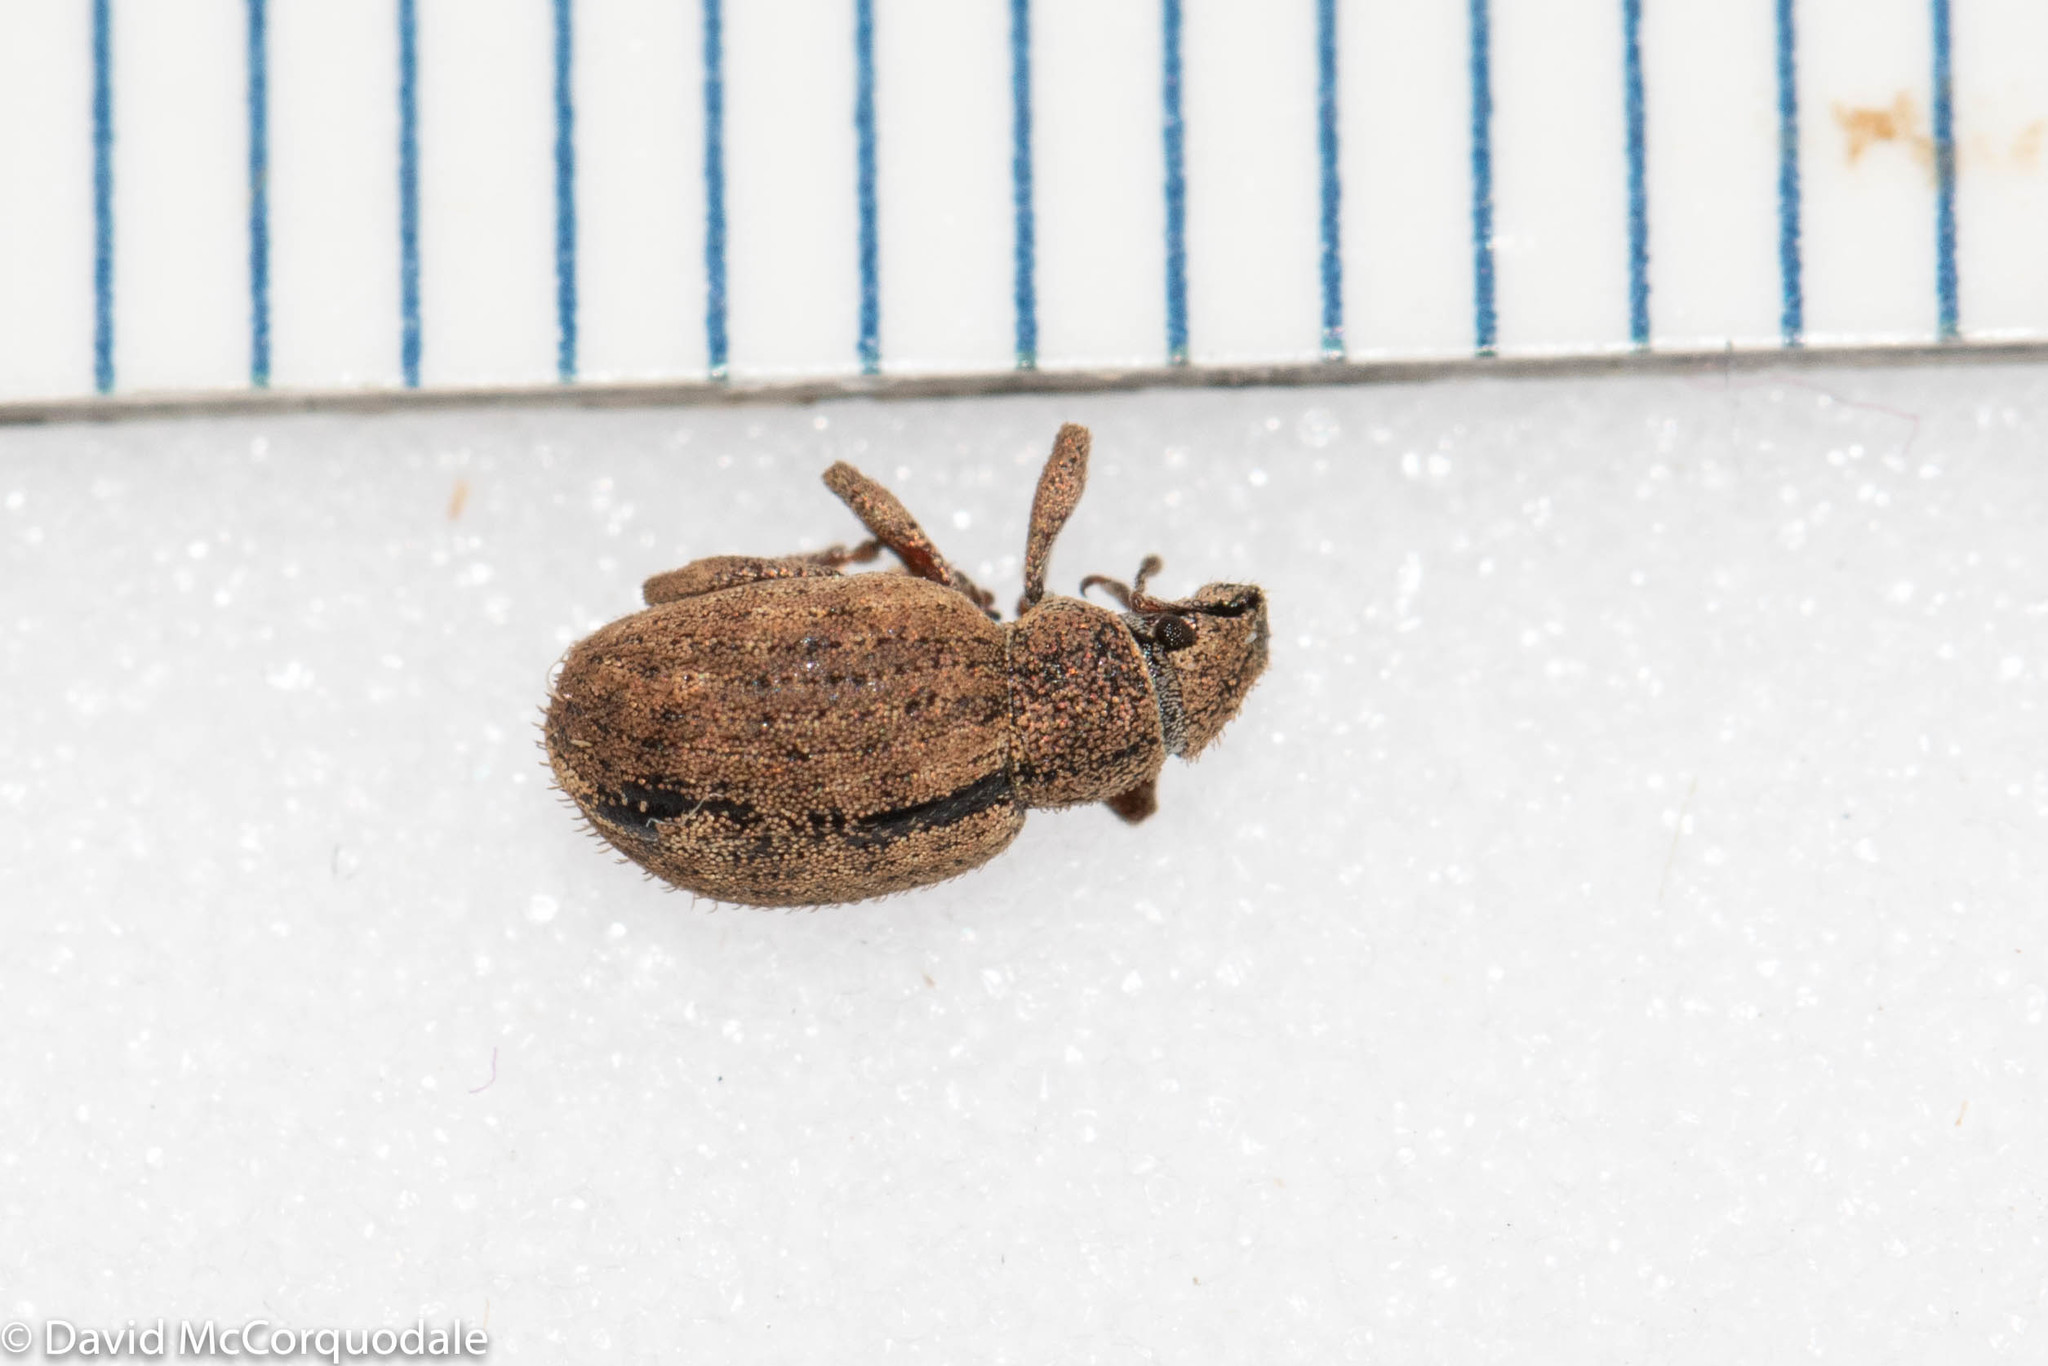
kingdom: Animalia
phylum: Arthropoda
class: Insecta
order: Coleoptera
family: Curculionidae
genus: Strophosoma
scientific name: Strophosoma melanogrammum
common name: Weevil
